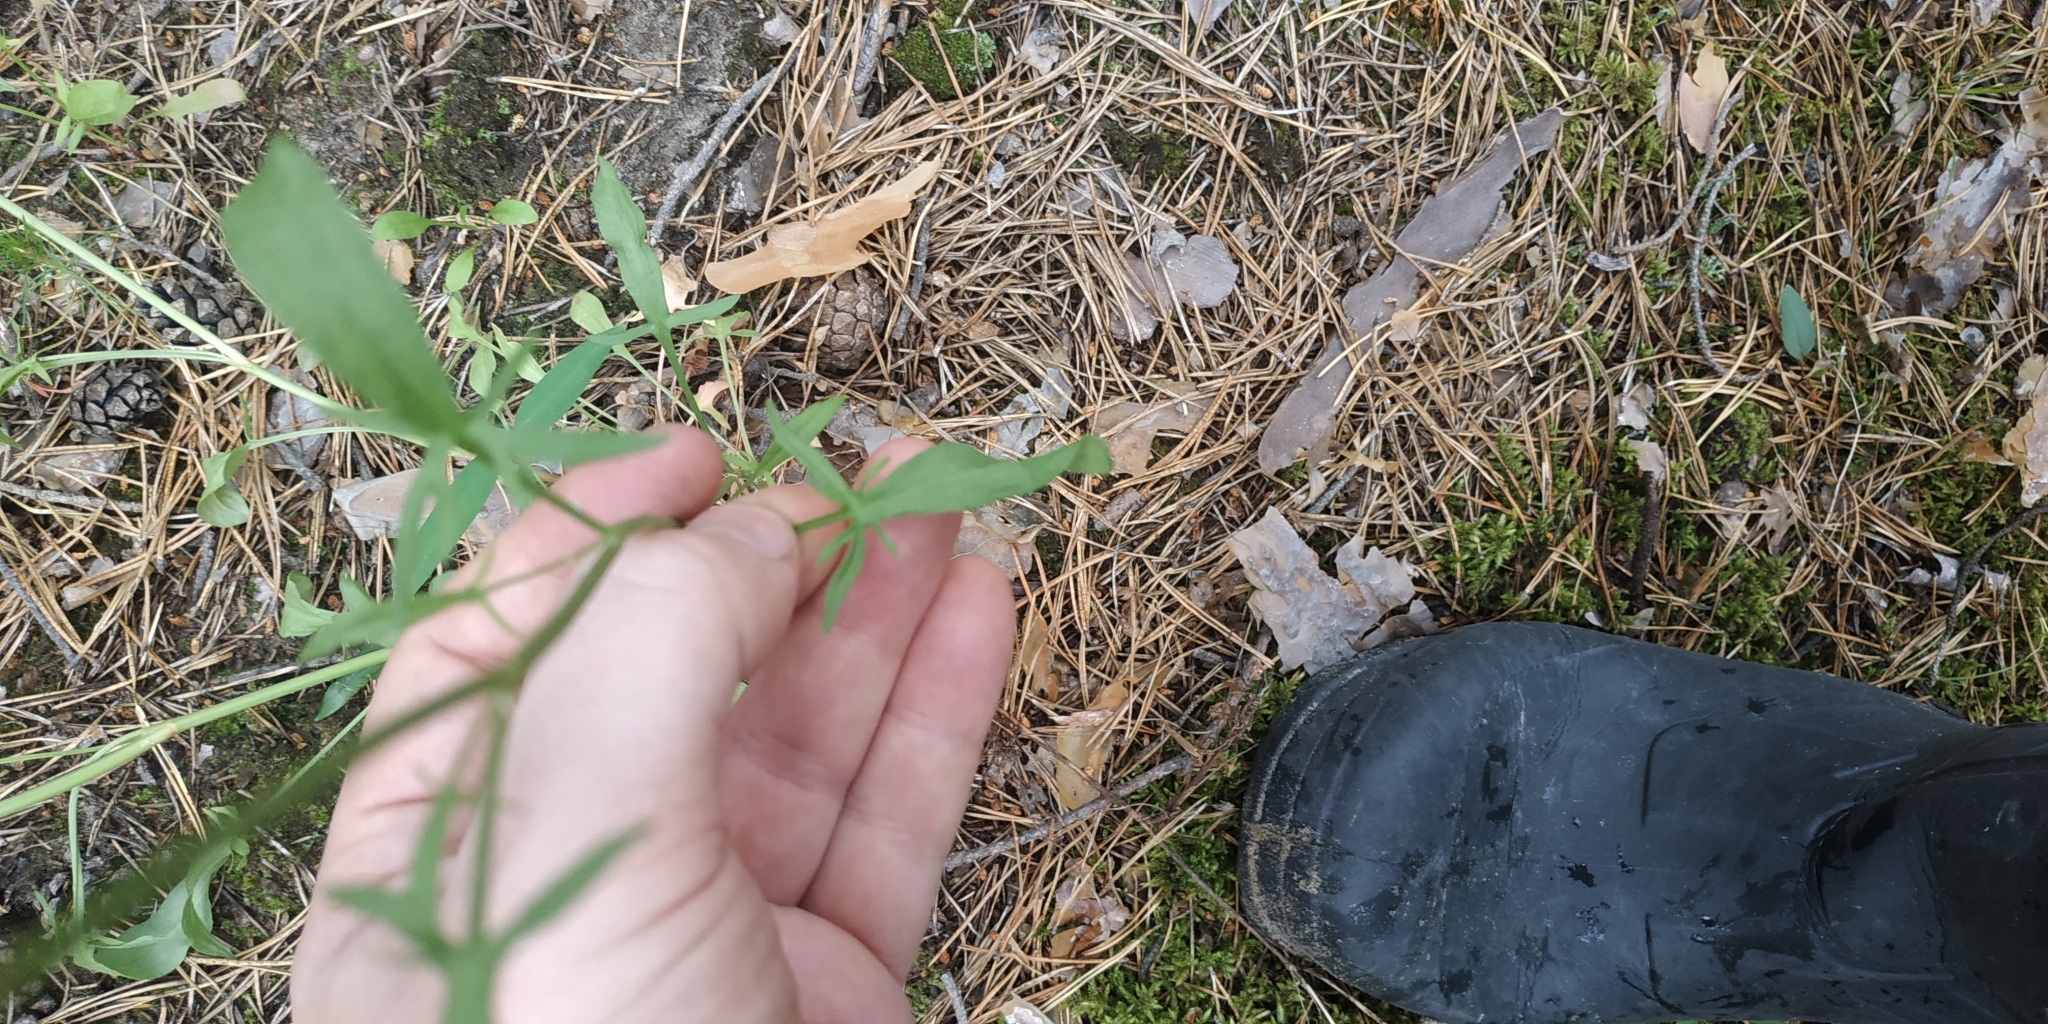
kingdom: Plantae
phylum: Tracheophyta
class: Magnoliopsida
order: Caryophyllales
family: Polygonaceae
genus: Rumex
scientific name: Rumex acetosella
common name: Common sheep sorrel
